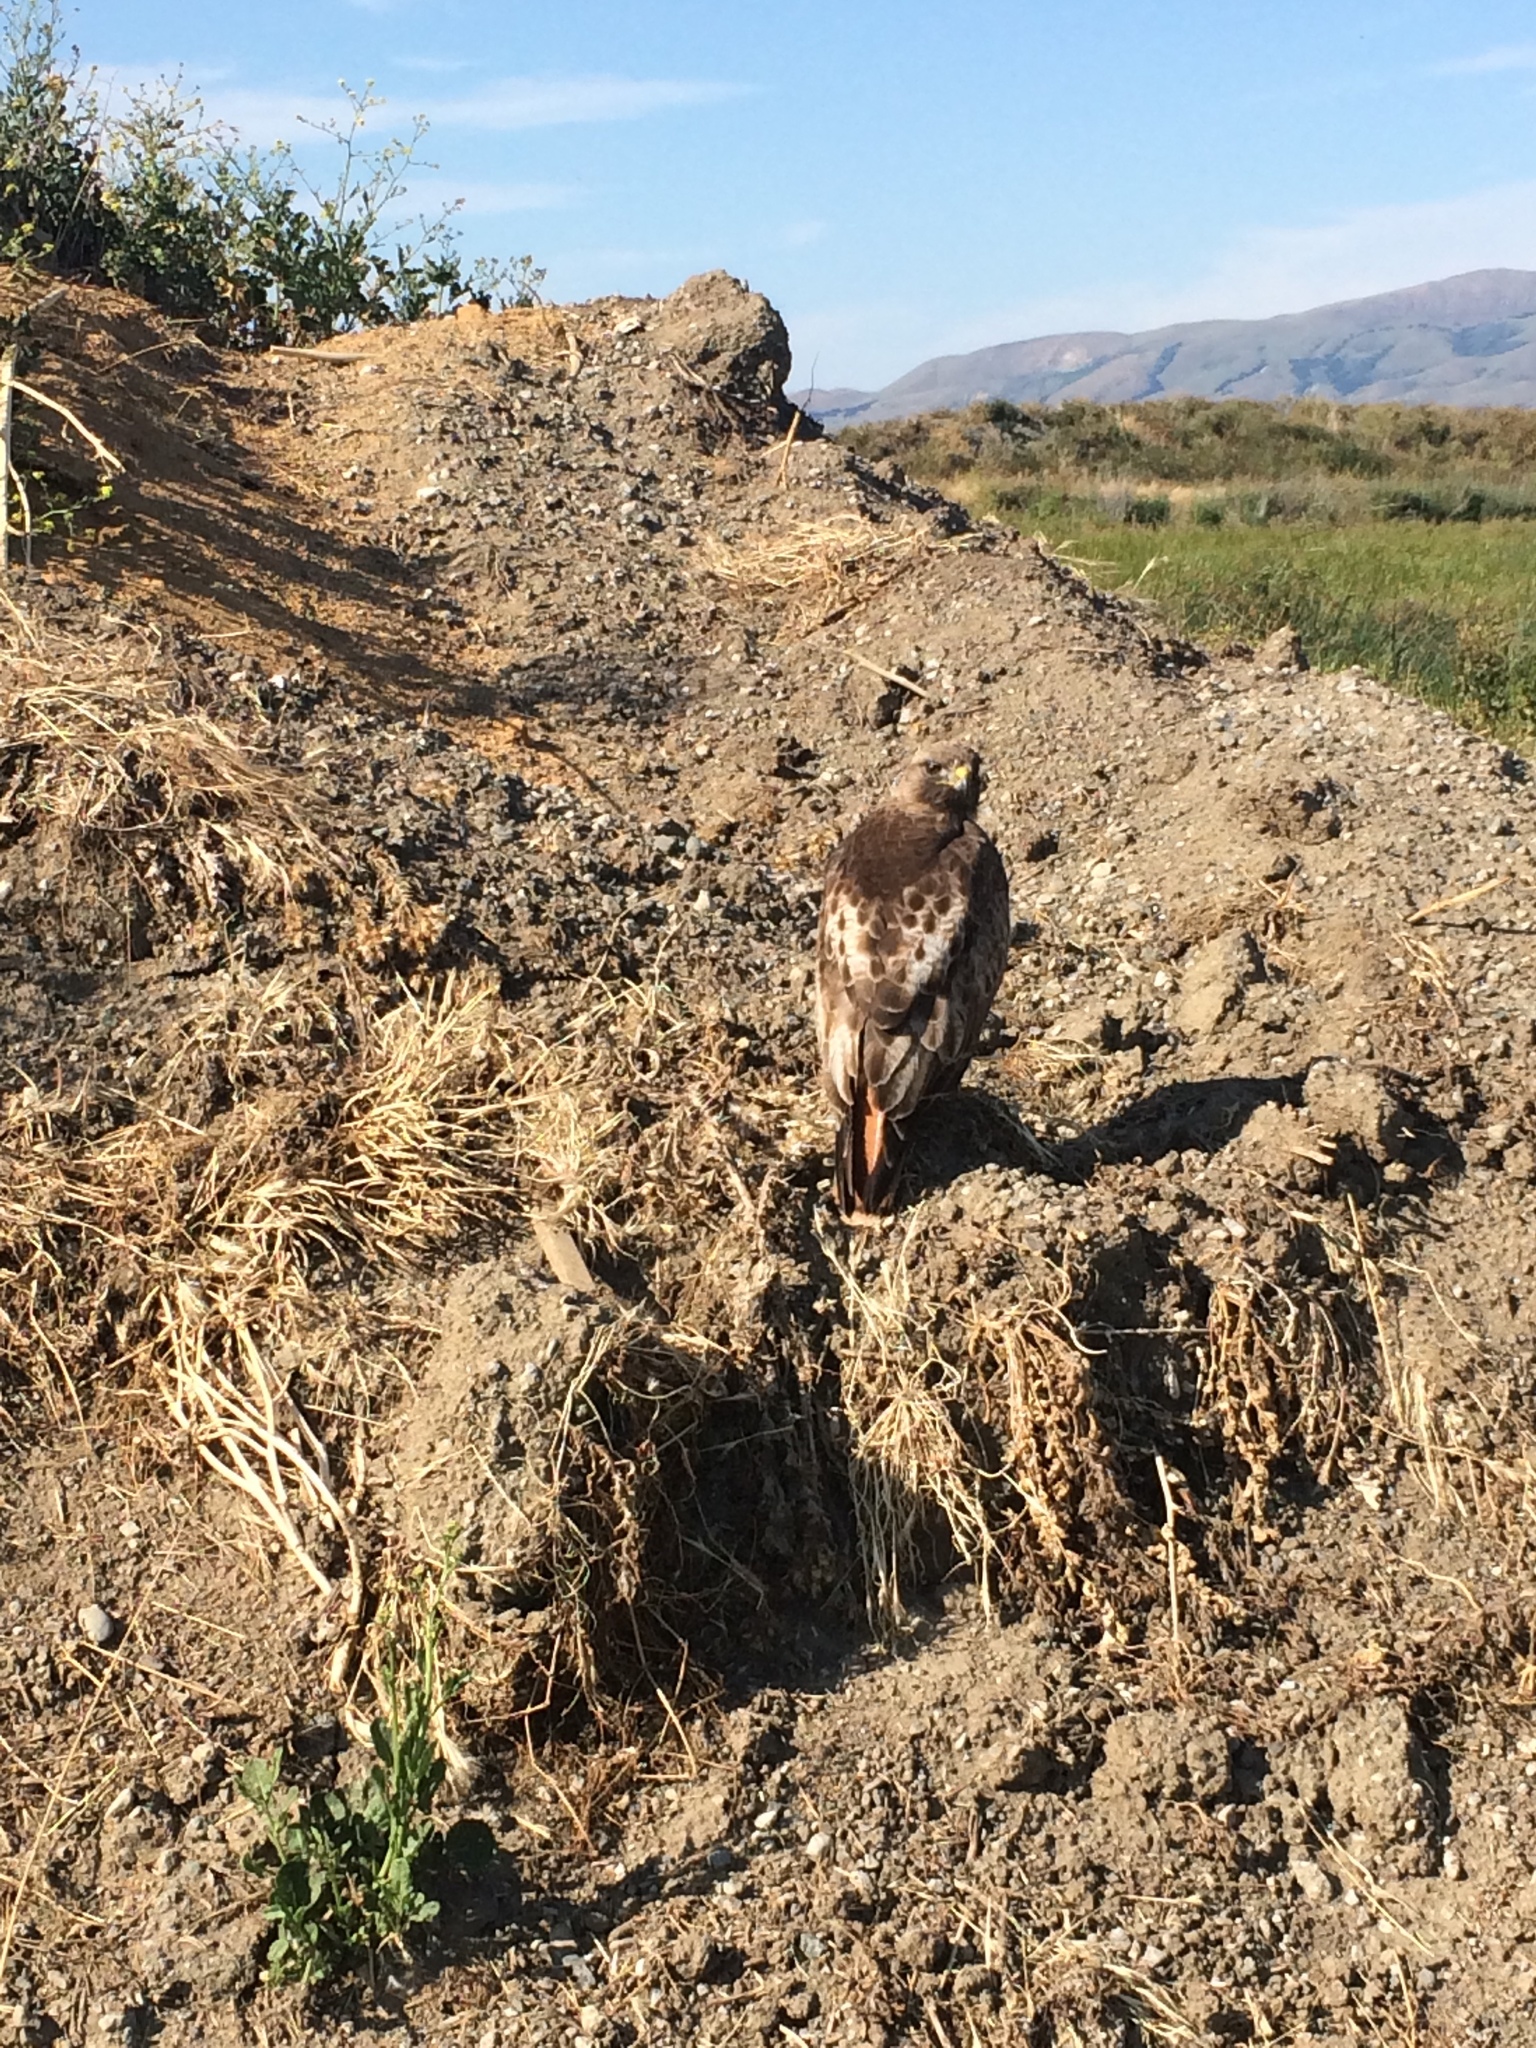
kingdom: Animalia
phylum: Chordata
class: Aves
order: Accipitriformes
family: Accipitridae
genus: Buteo
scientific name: Buteo jamaicensis
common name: Red-tailed hawk
